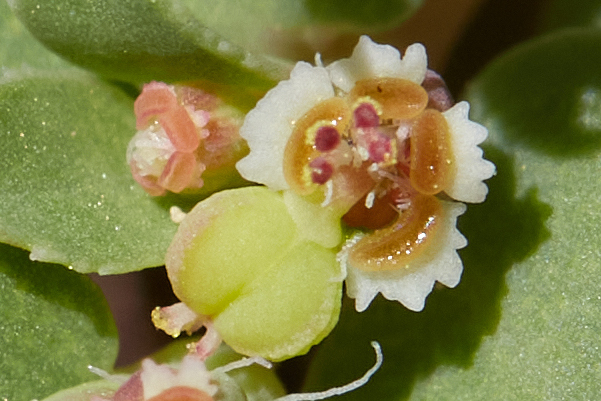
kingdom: Plantae
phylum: Tracheophyta
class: Magnoliopsida
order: Malpighiales
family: Euphorbiaceae
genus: Euphorbia
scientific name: Euphorbia serpillifolia
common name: Thyme-leaf spurge
